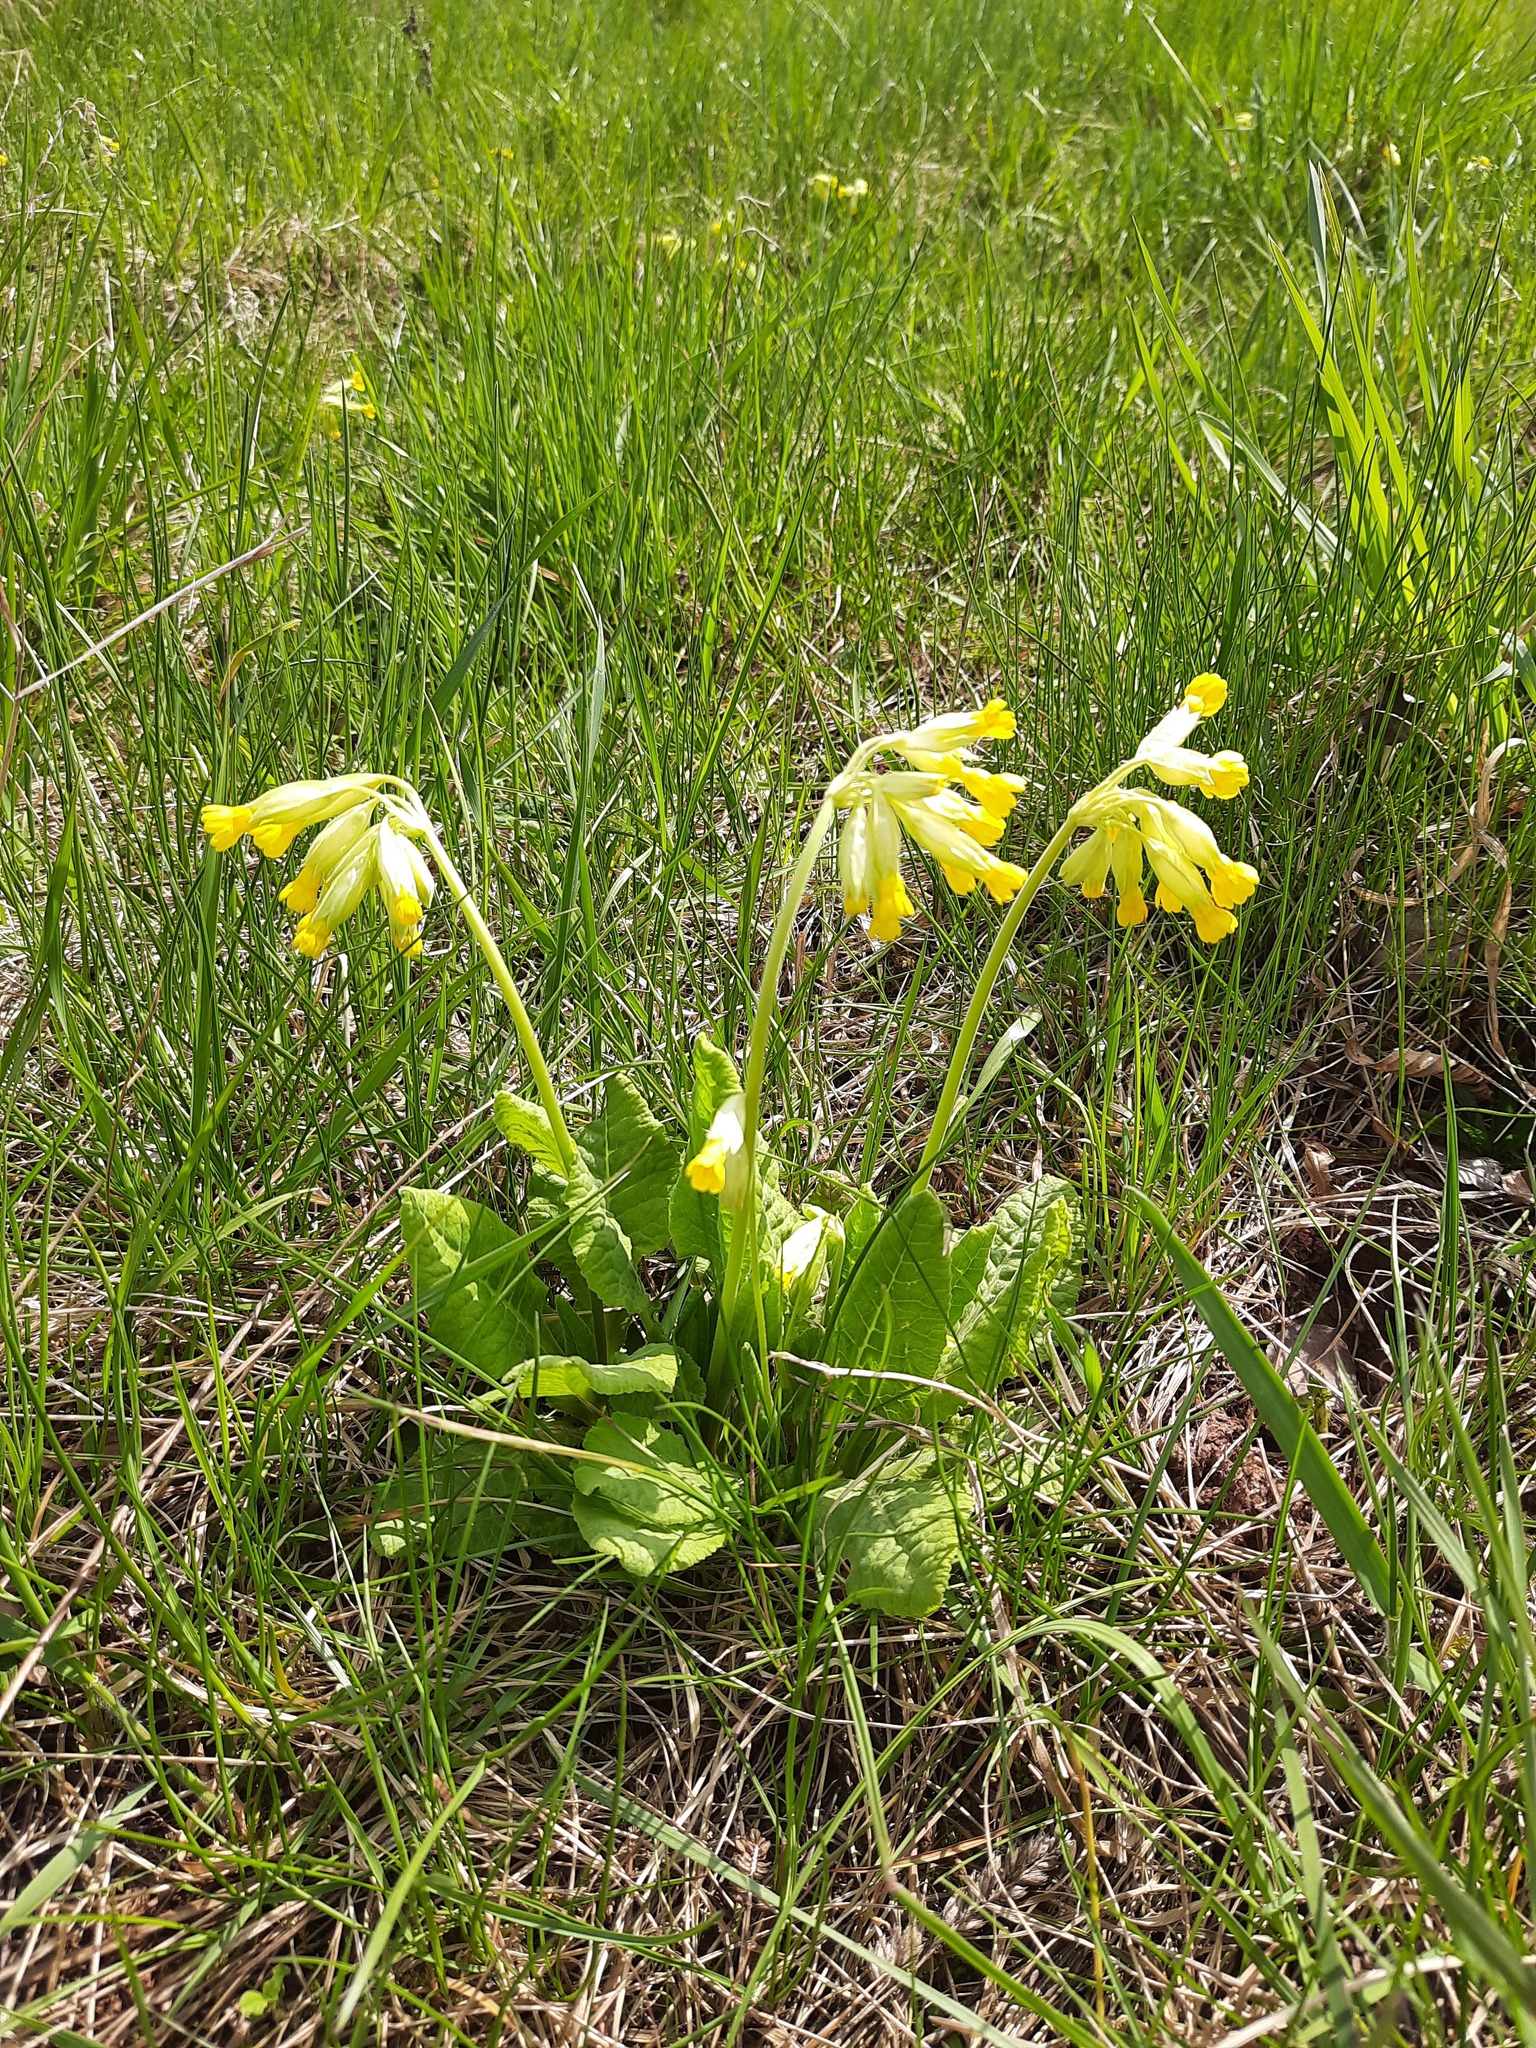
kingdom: Plantae
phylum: Tracheophyta
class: Magnoliopsida
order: Ericales
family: Primulaceae
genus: Primula
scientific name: Primula veris
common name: Cowslip
